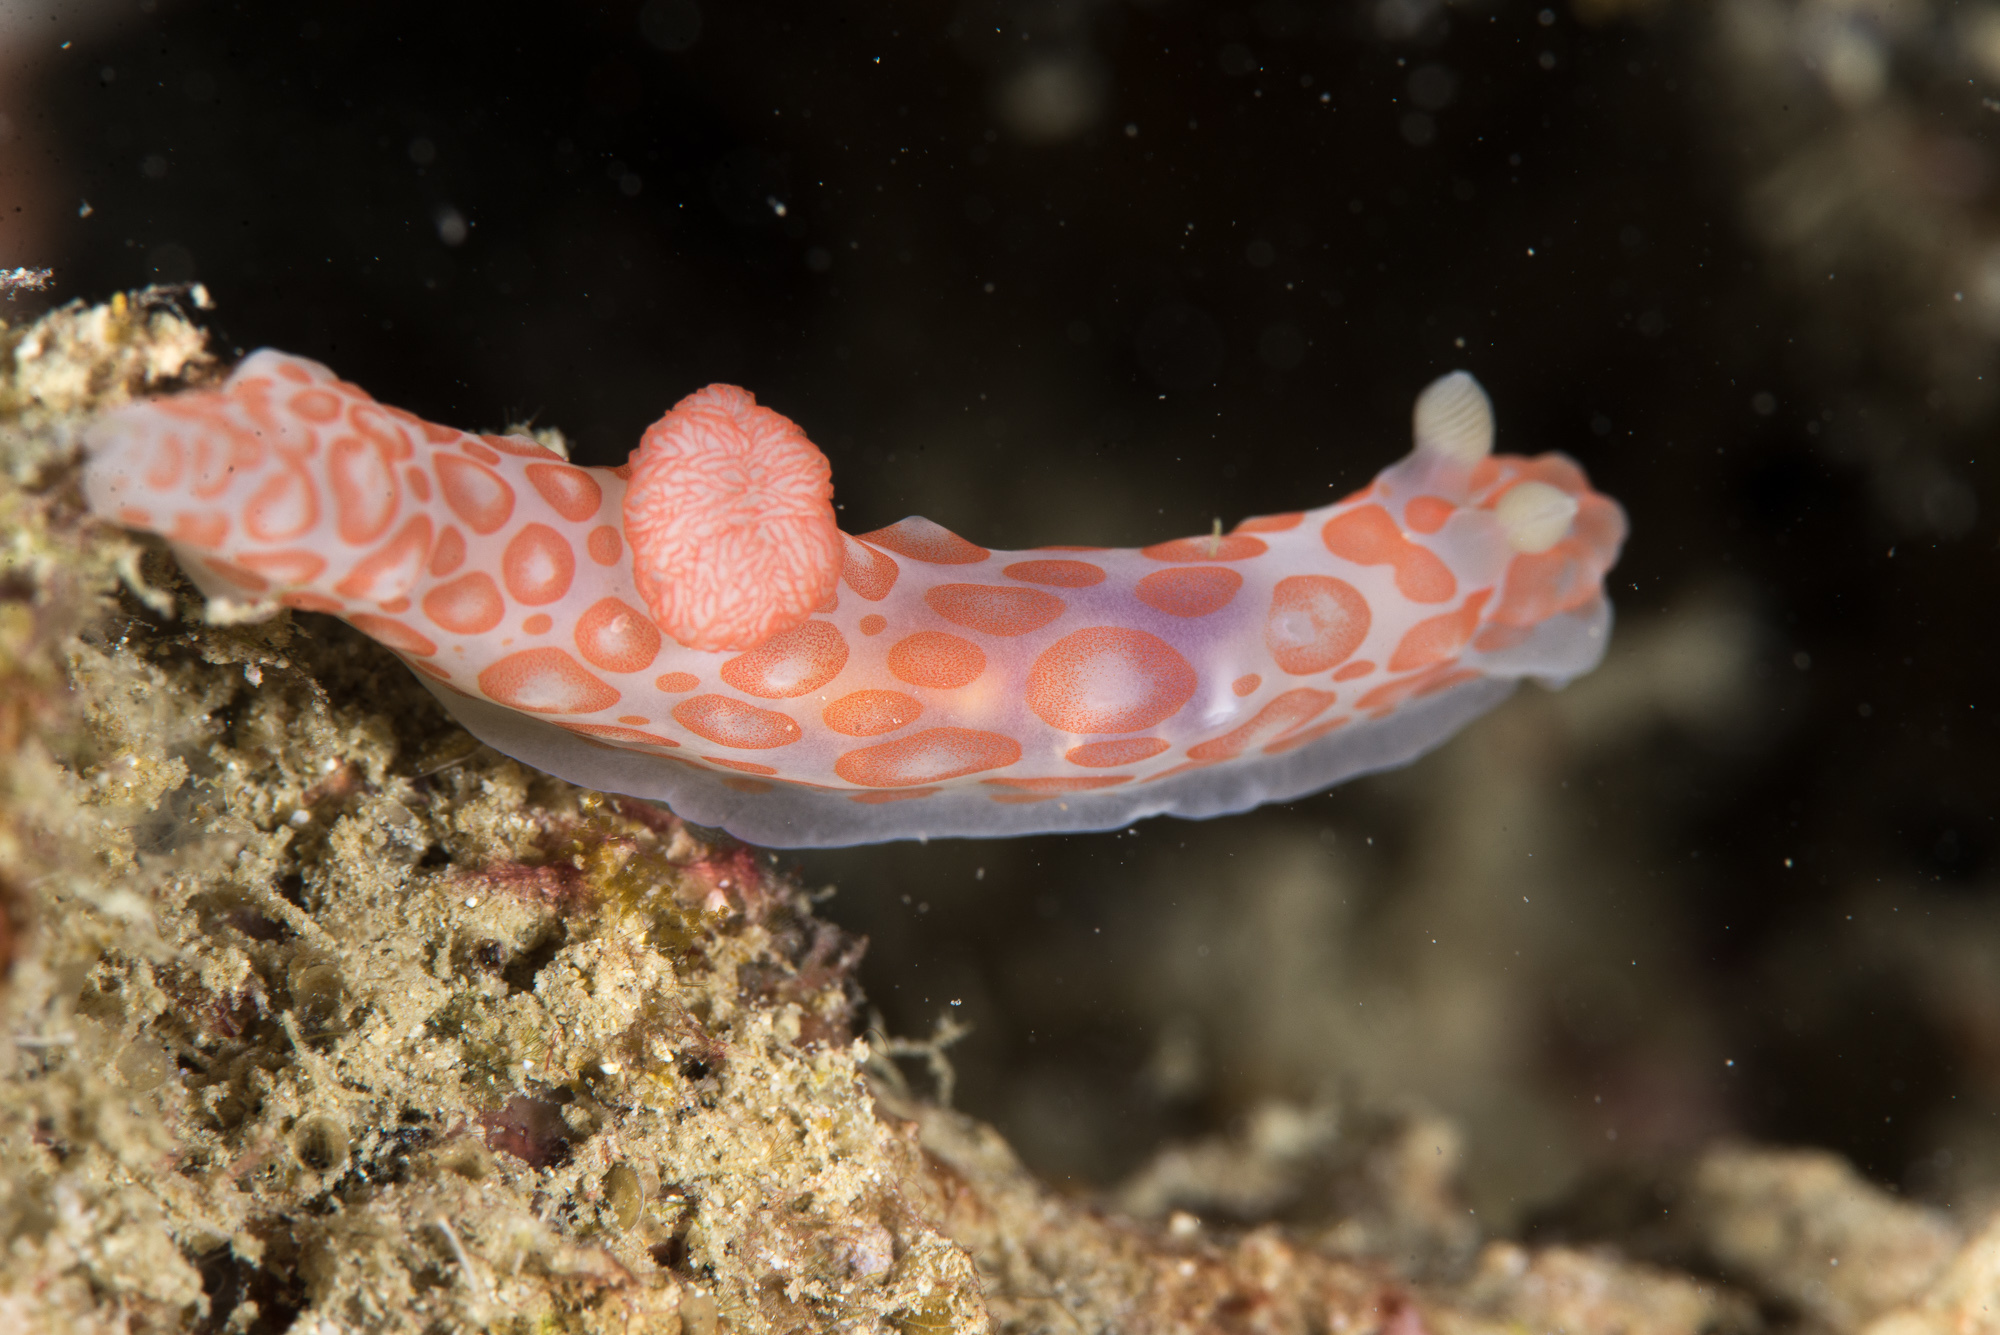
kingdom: Animalia
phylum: Mollusca
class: Gastropoda
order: Nudibranchia
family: Polyceridae
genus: Gymnodoris
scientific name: Gymnodoris impudica
